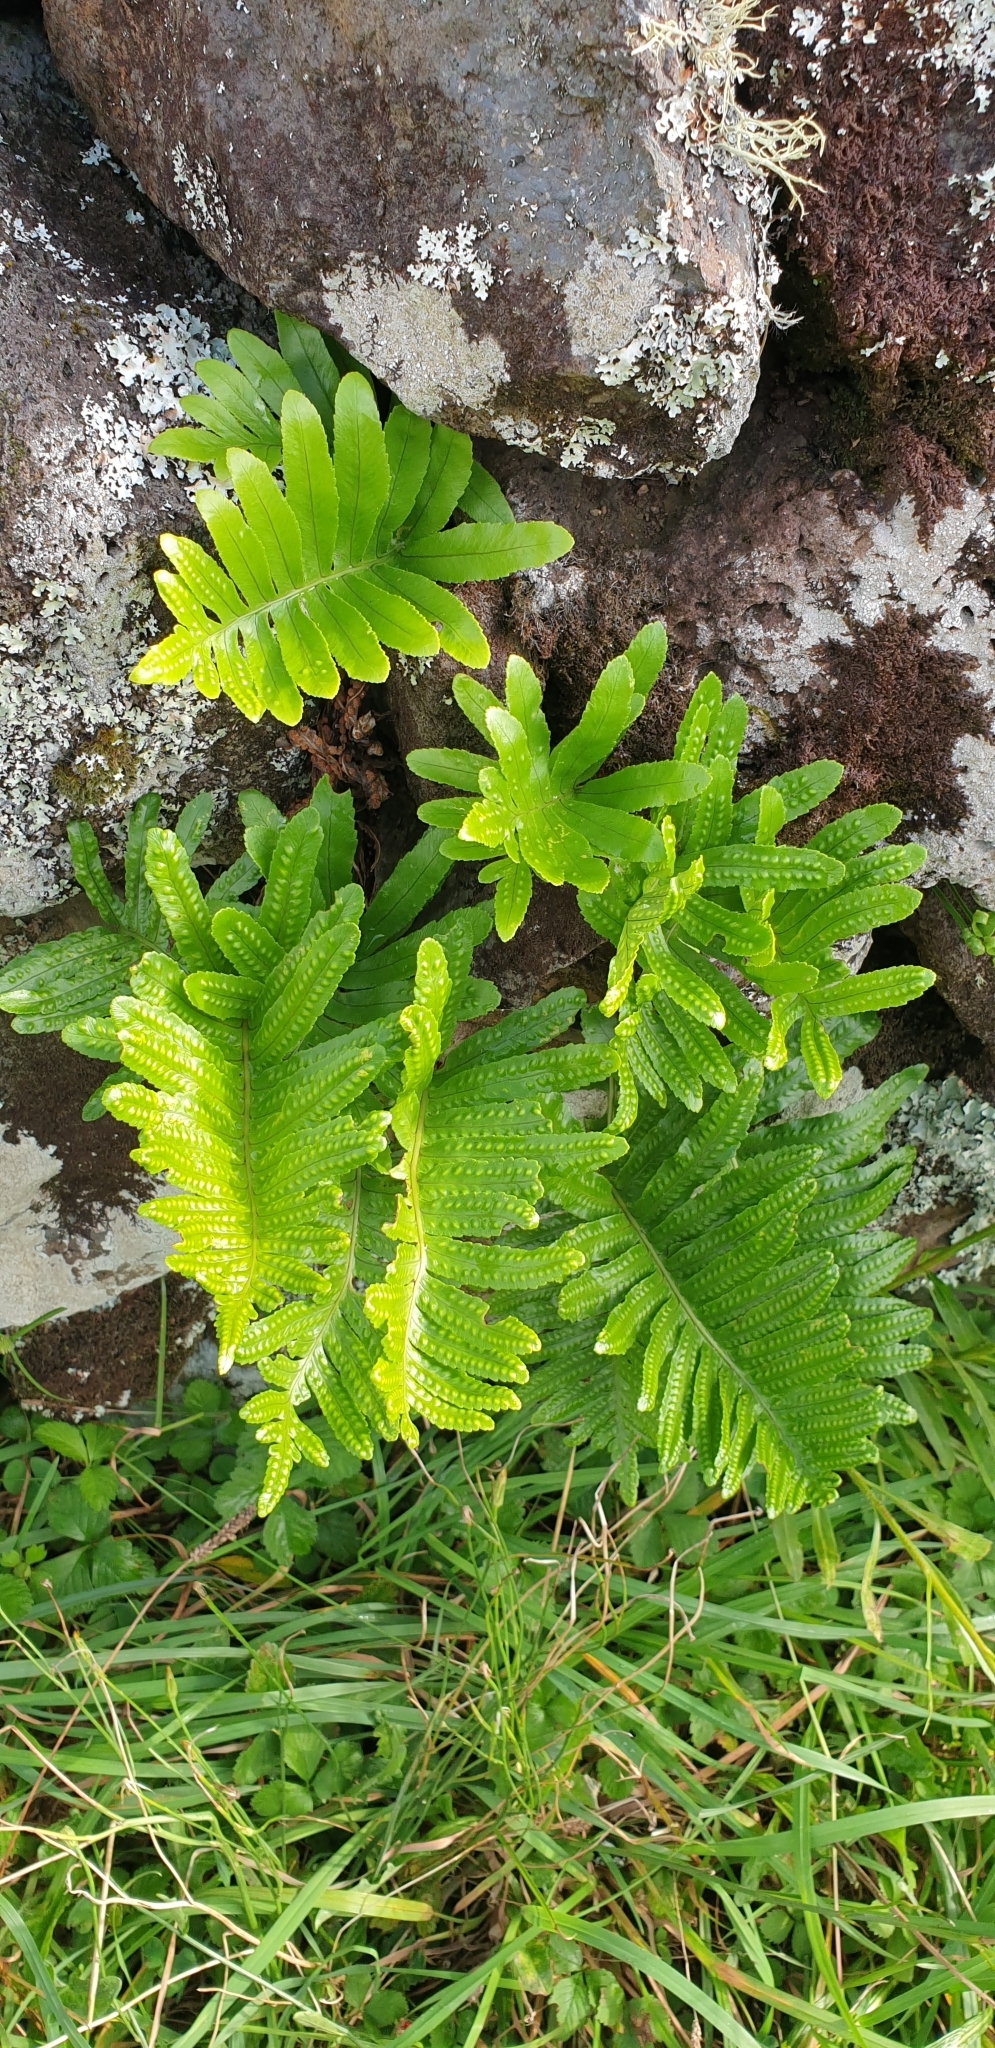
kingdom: Plantae
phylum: Tracheophyta
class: Polypodiopsida
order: Polypodiales
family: Polypodiaceae
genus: Polypodium
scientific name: Polypodium macaronesicum
